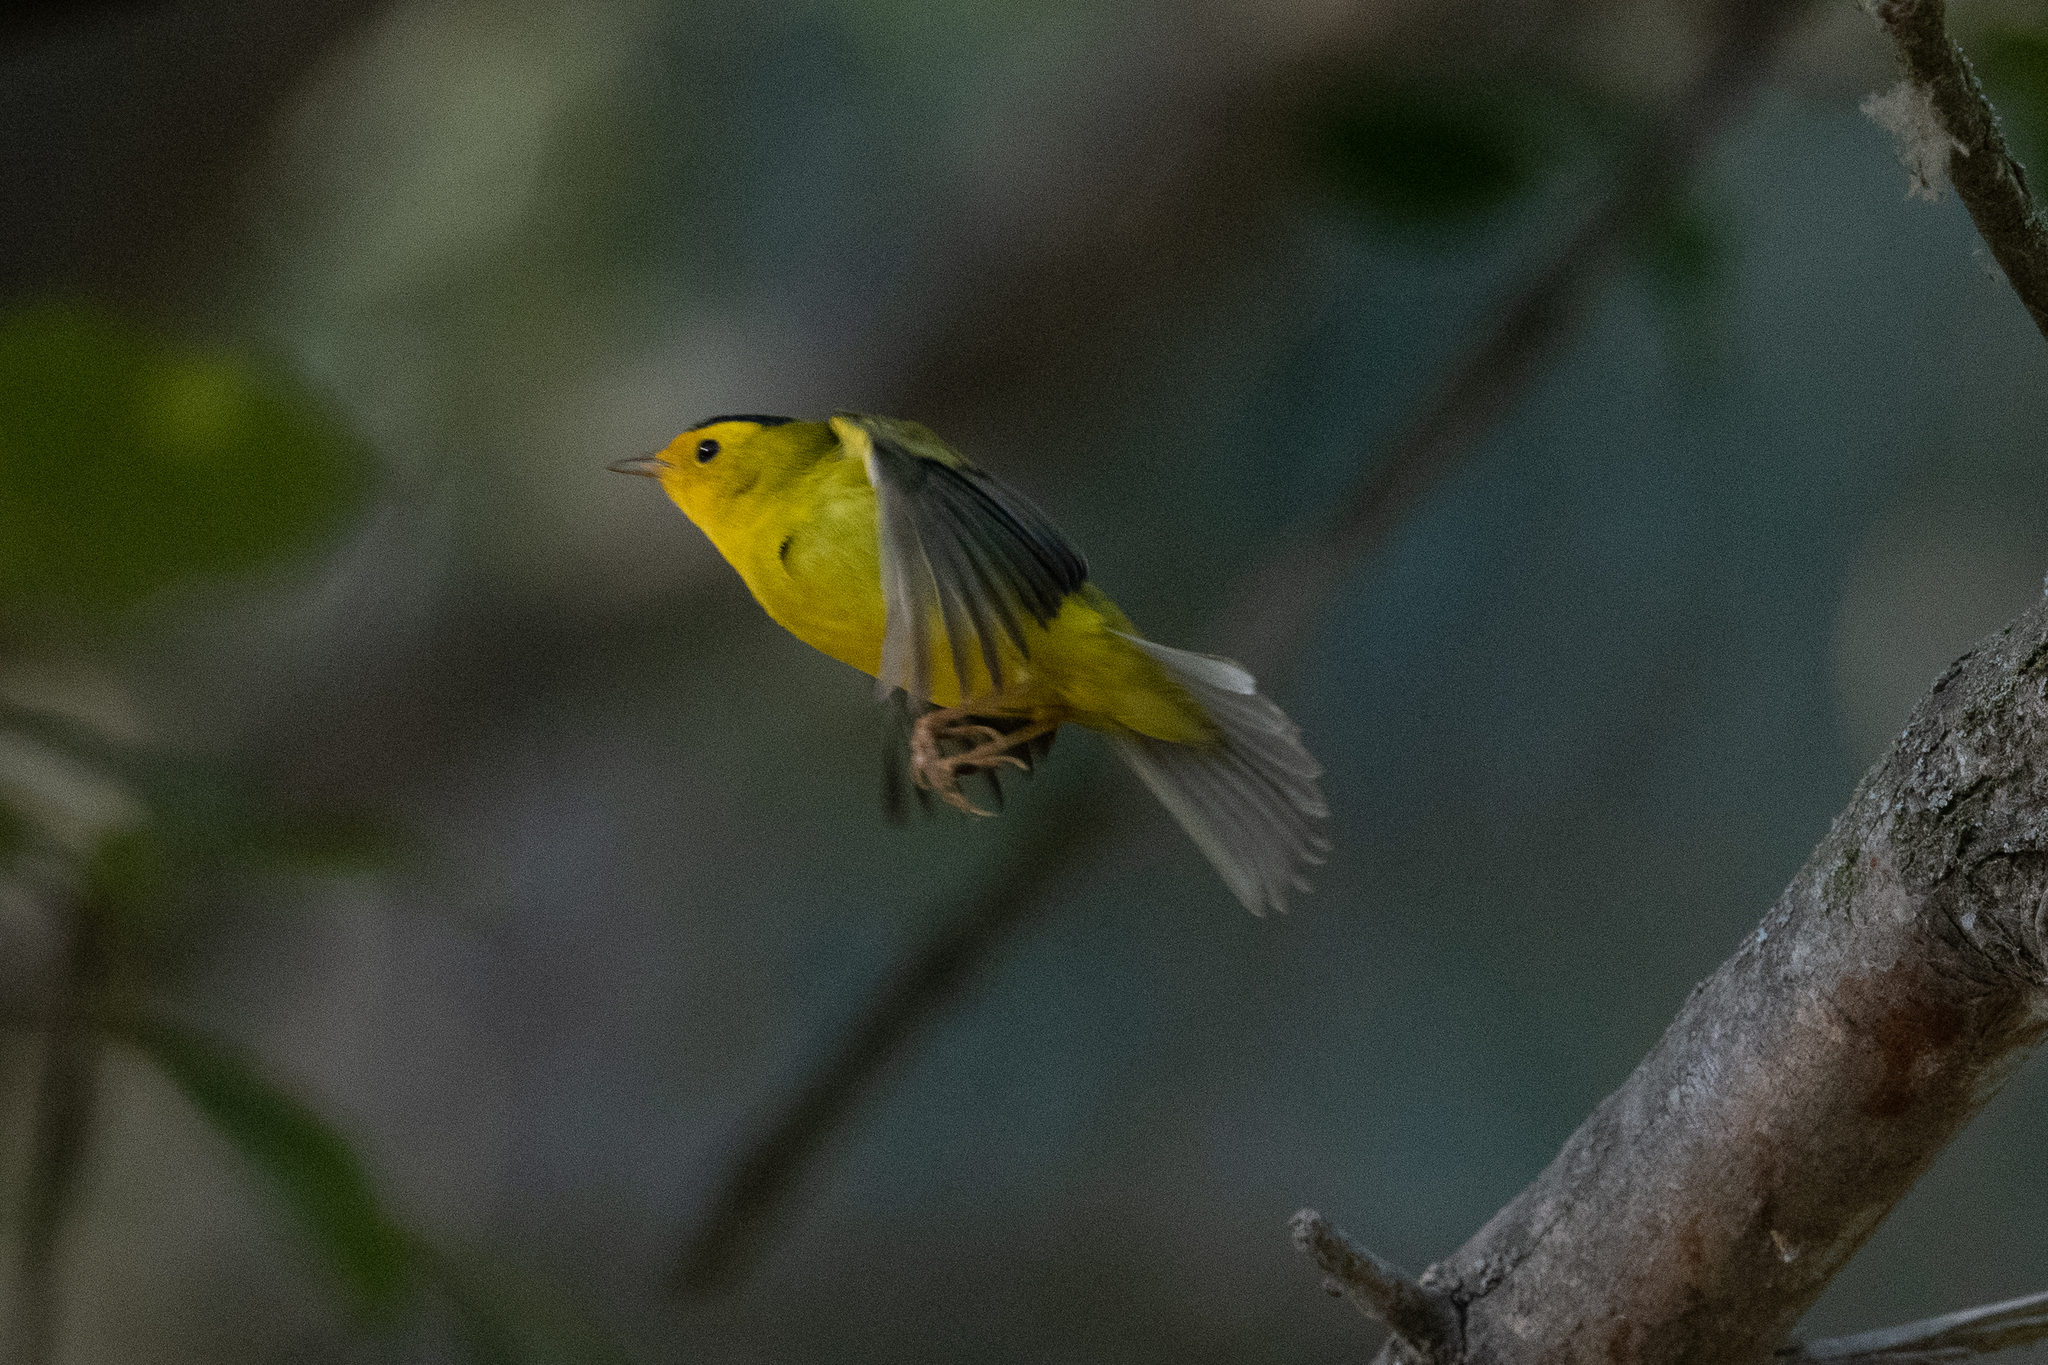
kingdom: Animalia
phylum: Chordata
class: Aves
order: Passeriformes
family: Parulidae
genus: Cardellina
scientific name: Cardellina pusilla
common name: Wilson's warbler
